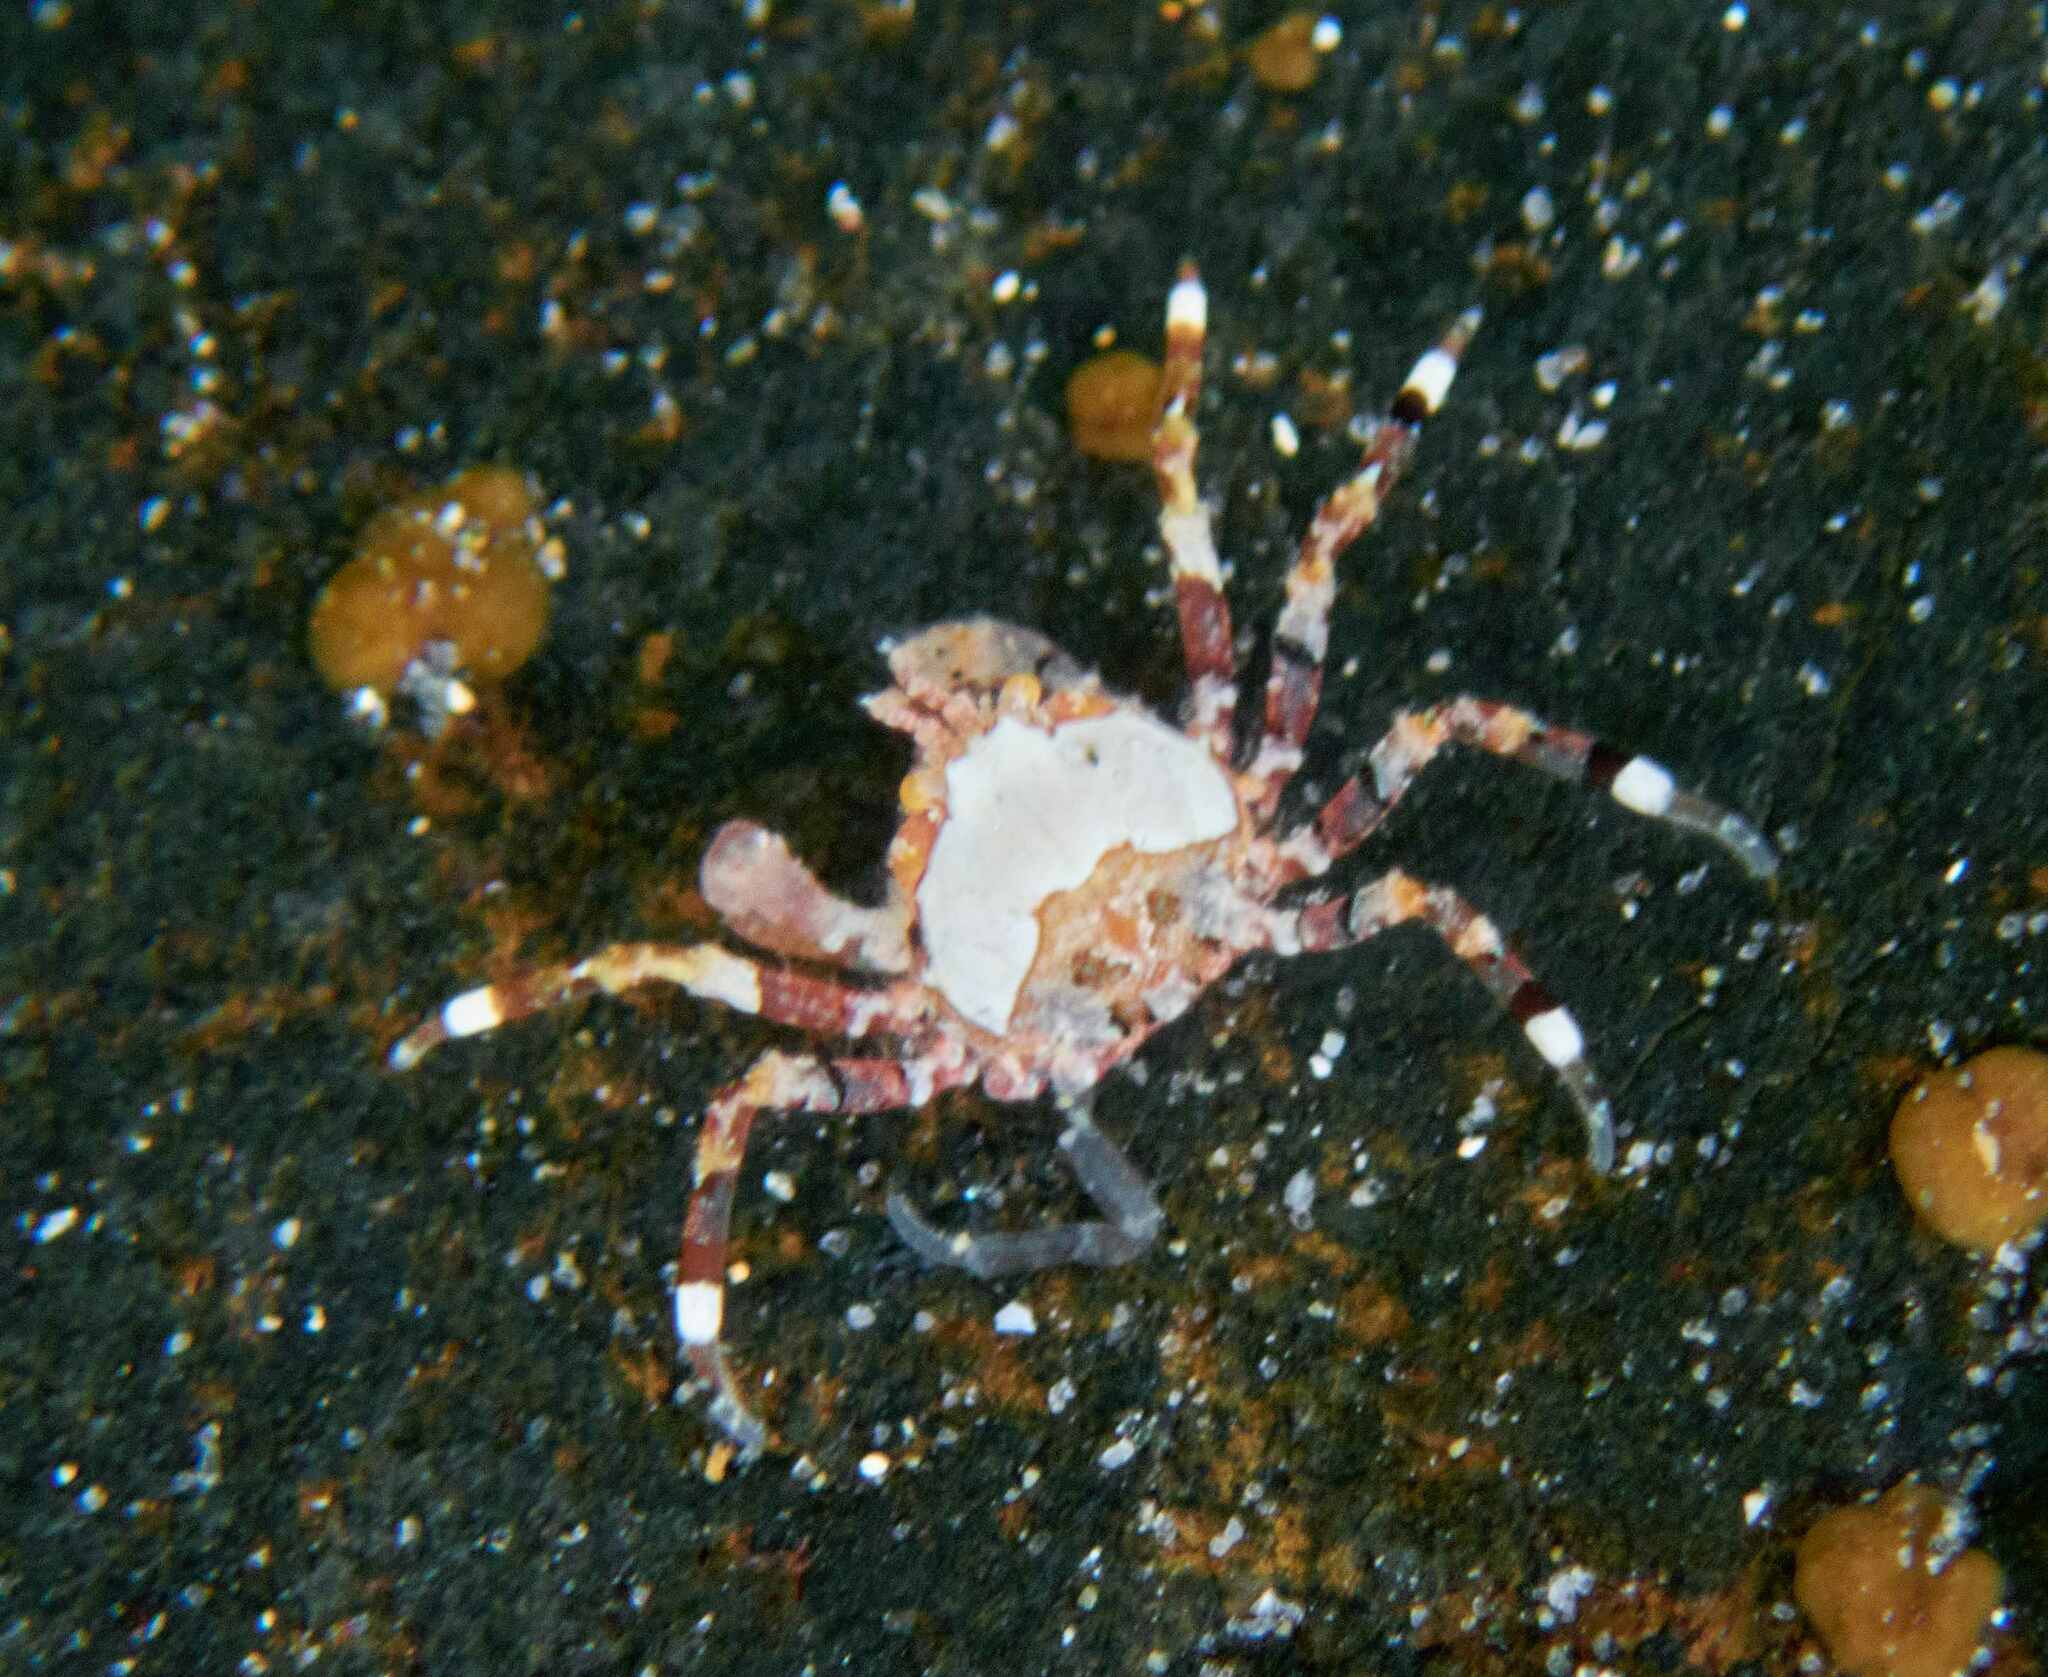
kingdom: Animalia
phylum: Arthropoda
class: Malacostraca
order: Decapoda
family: Hymenosomatidae
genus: Halicarcinus
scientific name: Halicarcinus cookii
